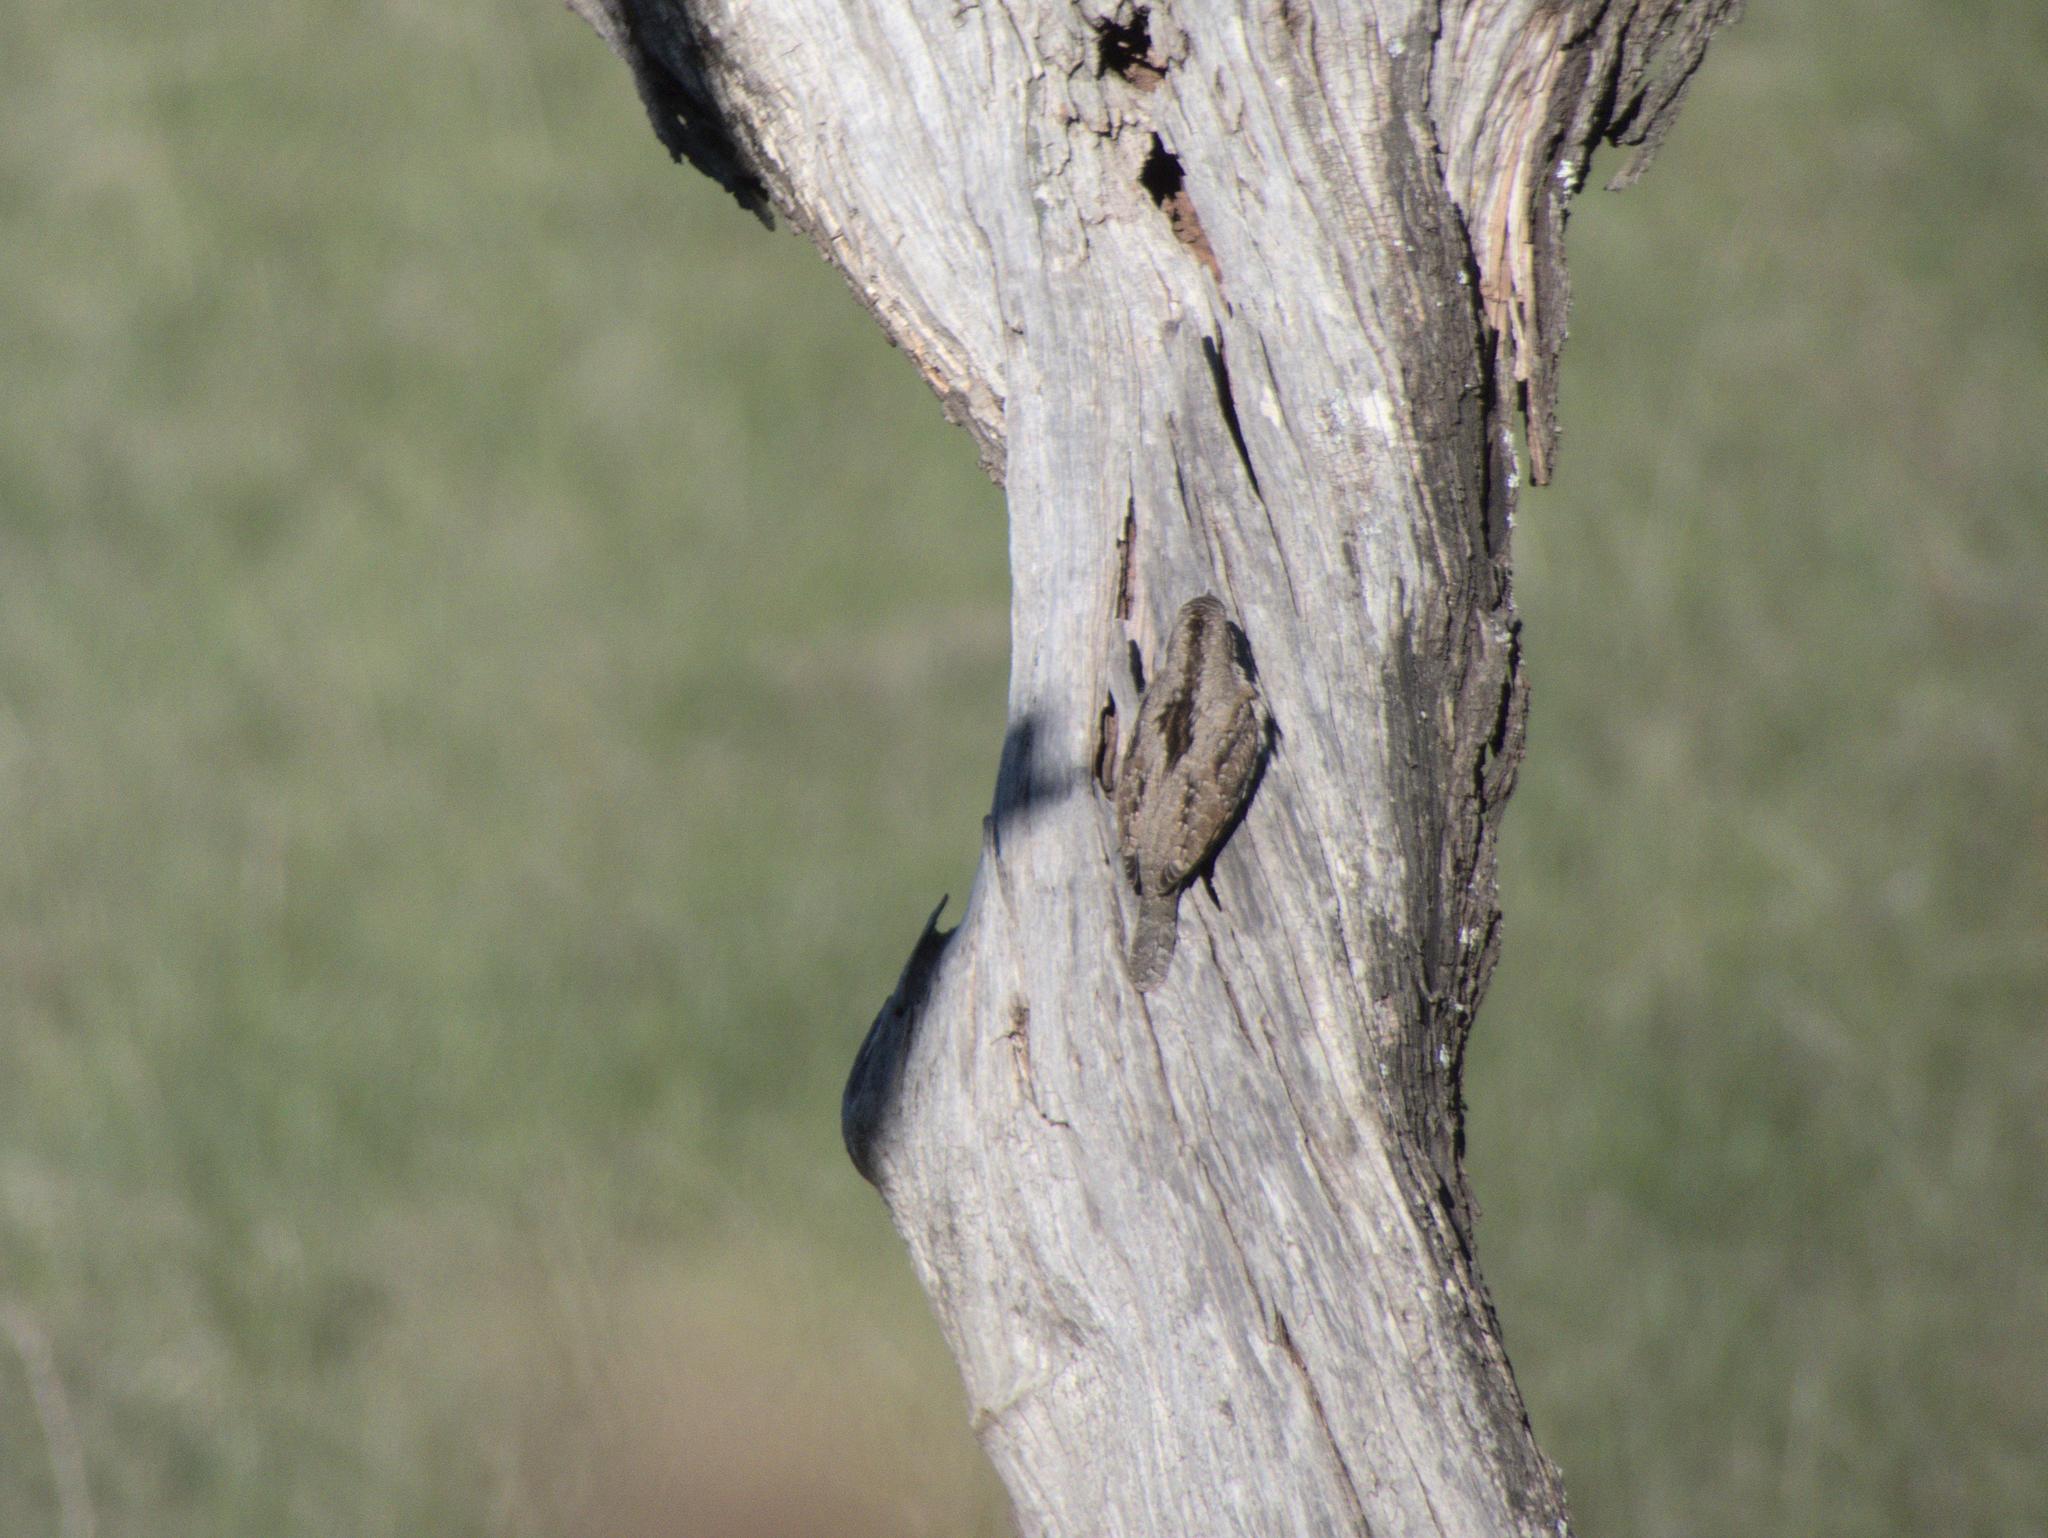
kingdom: Animalia
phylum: Chordata
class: Aves
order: Piciformes
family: Picidae
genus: Jynx
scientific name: Jynx torquilla
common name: Eurasian wryneck
